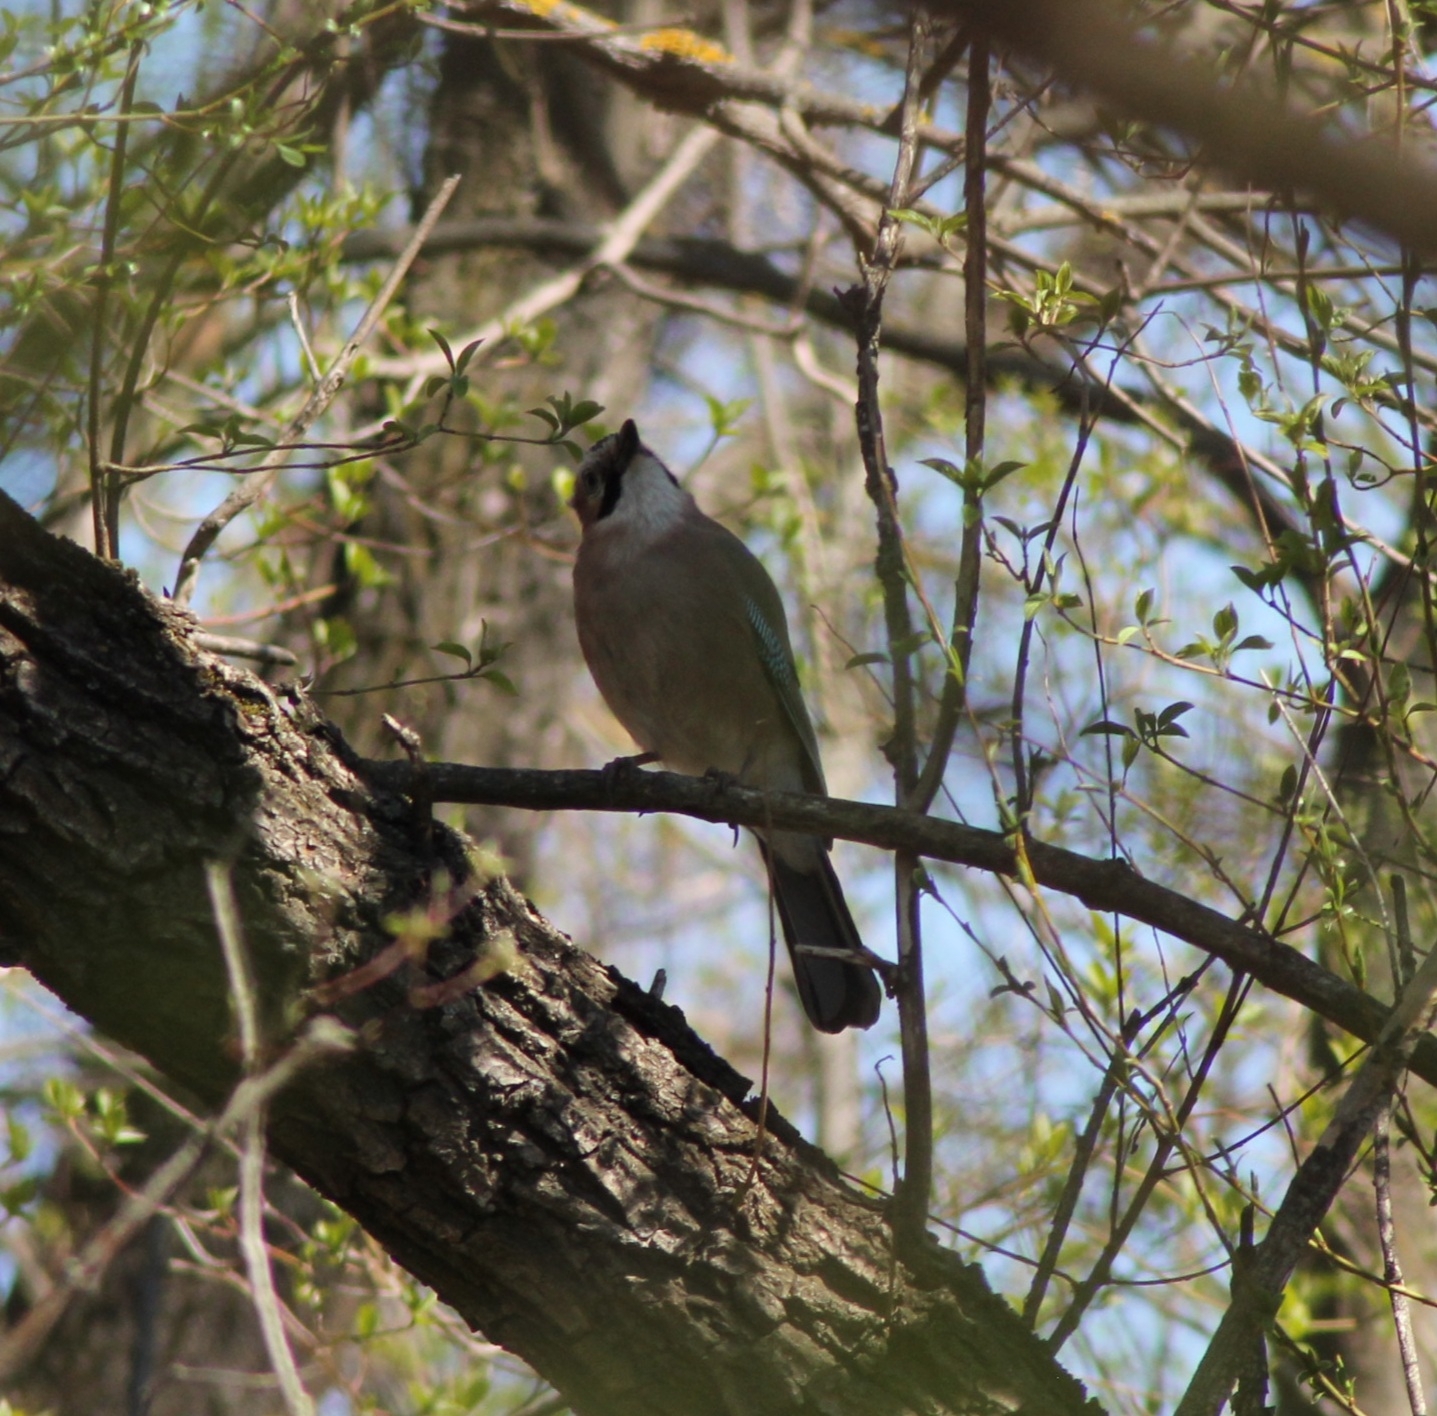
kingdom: Animalia
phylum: Chordata
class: Aves
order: Passeriformes
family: Corvidae
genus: Garrulus
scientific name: Garrulus glandarius
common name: Eurasian jay
